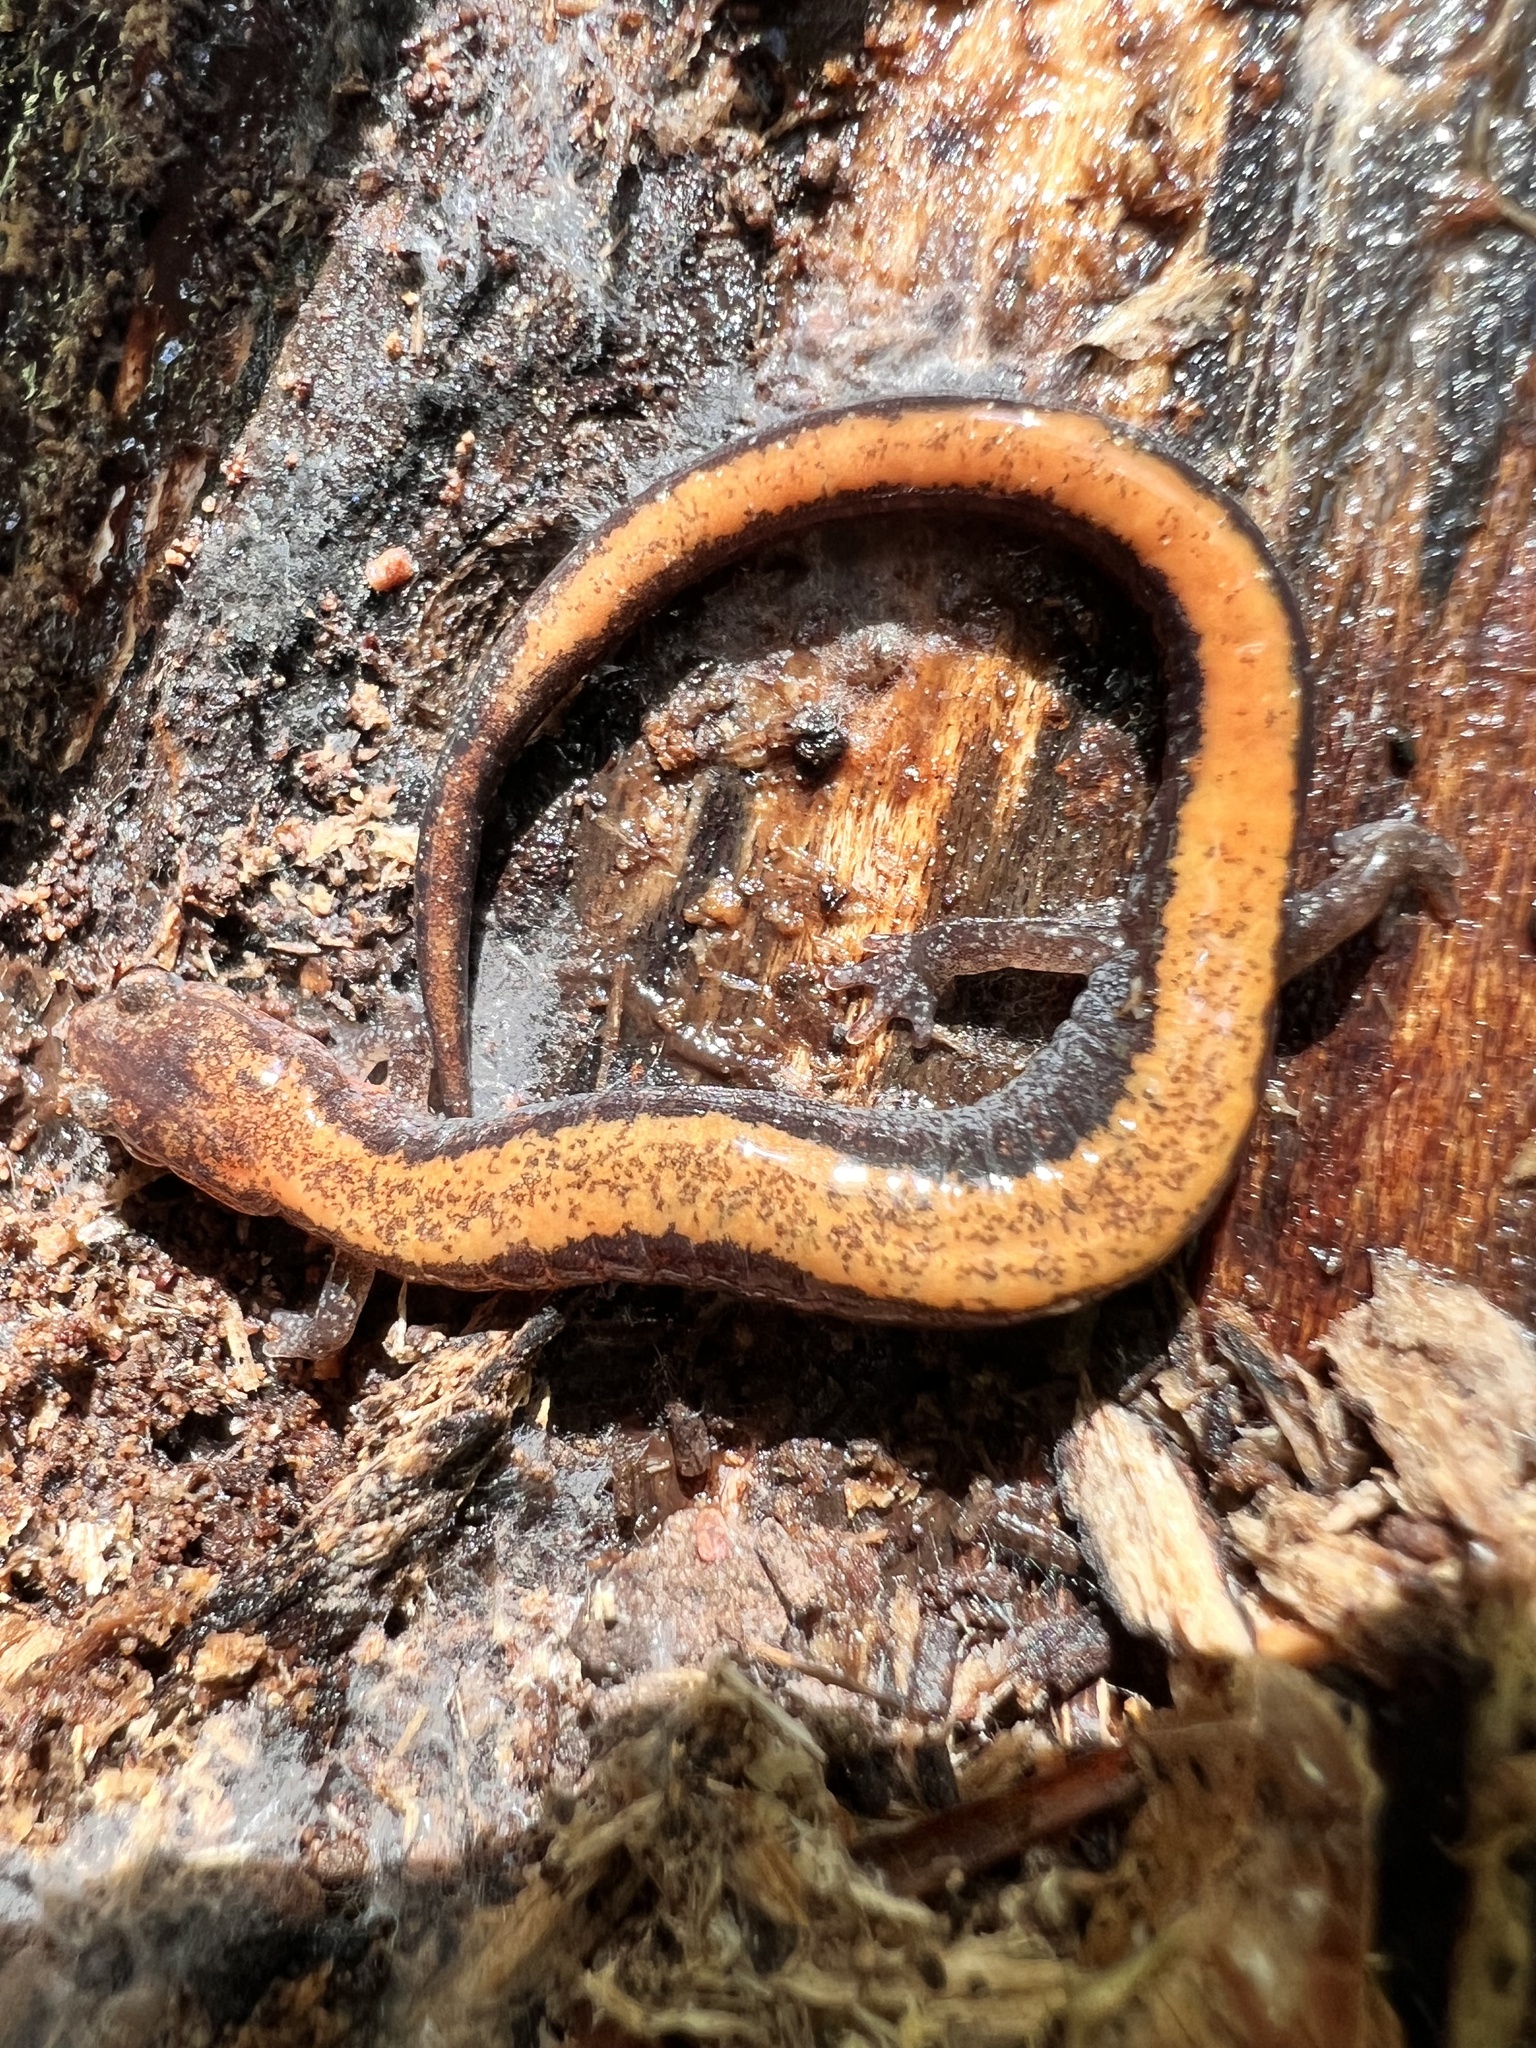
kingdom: Animalia
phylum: Chordata
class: Amphibia
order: Caudata
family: Plethodontidae
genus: Plethodon
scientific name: Plethodon cinereus
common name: Redback salamander
